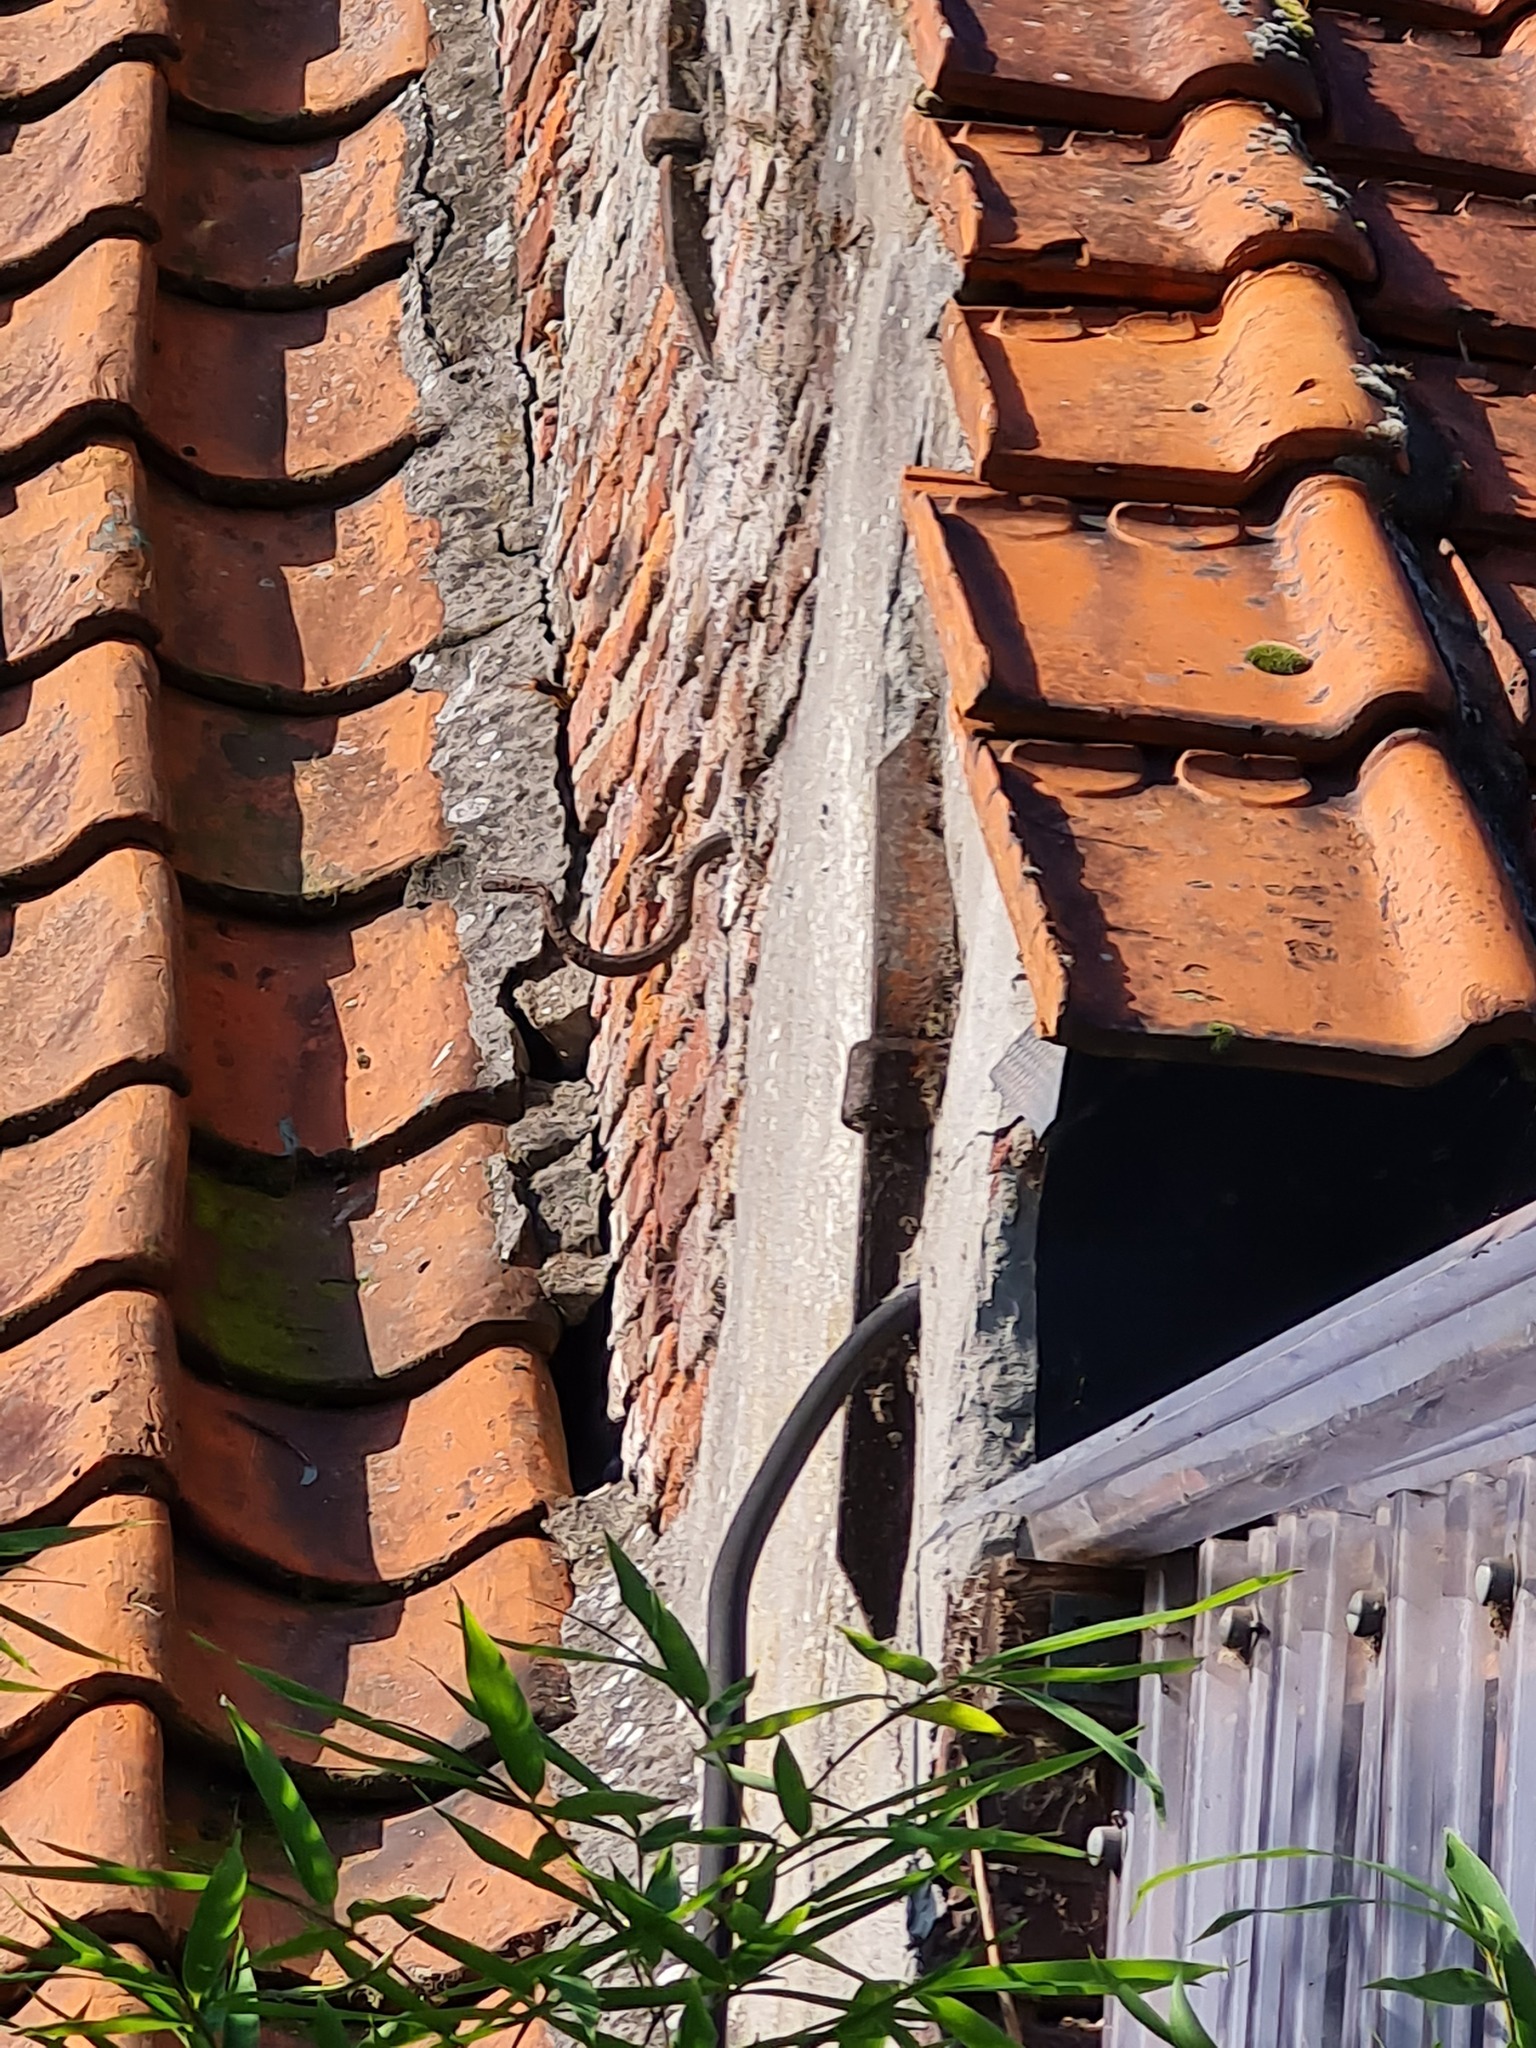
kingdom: Animalia
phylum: Arthropoda
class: Insecta
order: Hymenoptera
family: Vespidae
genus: Vespa
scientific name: Vespa velutina
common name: Asian hornet
